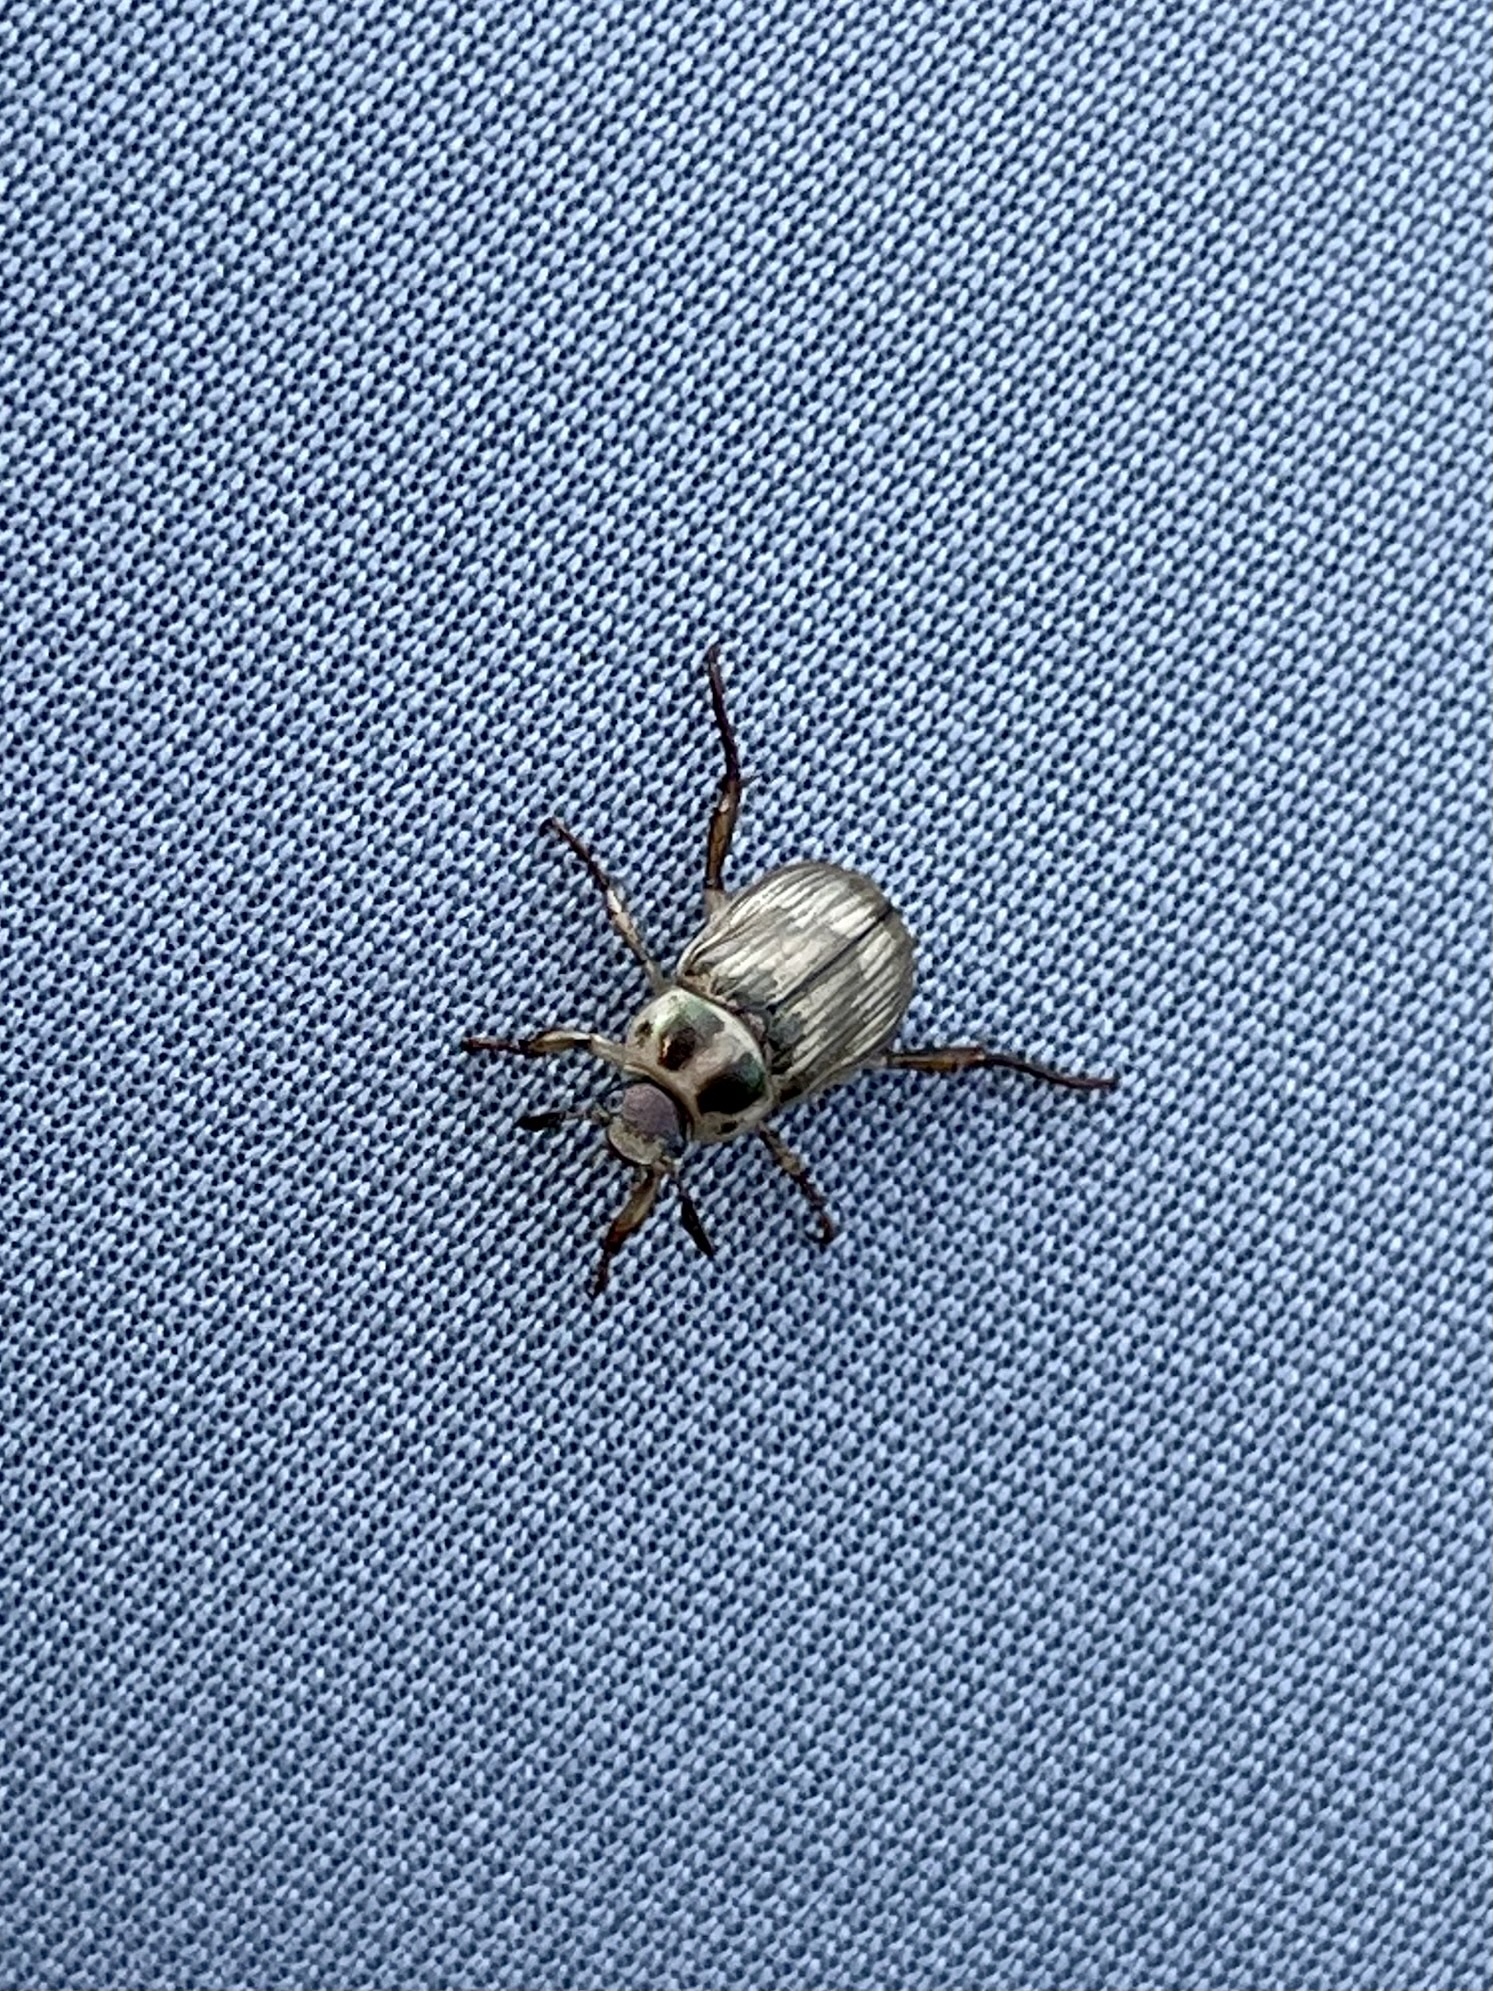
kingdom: Animalia
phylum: Arthropoda
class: Insecta
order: Coleoptera
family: Scarabaeidae
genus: Exomala
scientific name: Exomala orientalis
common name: Oriental beetle
